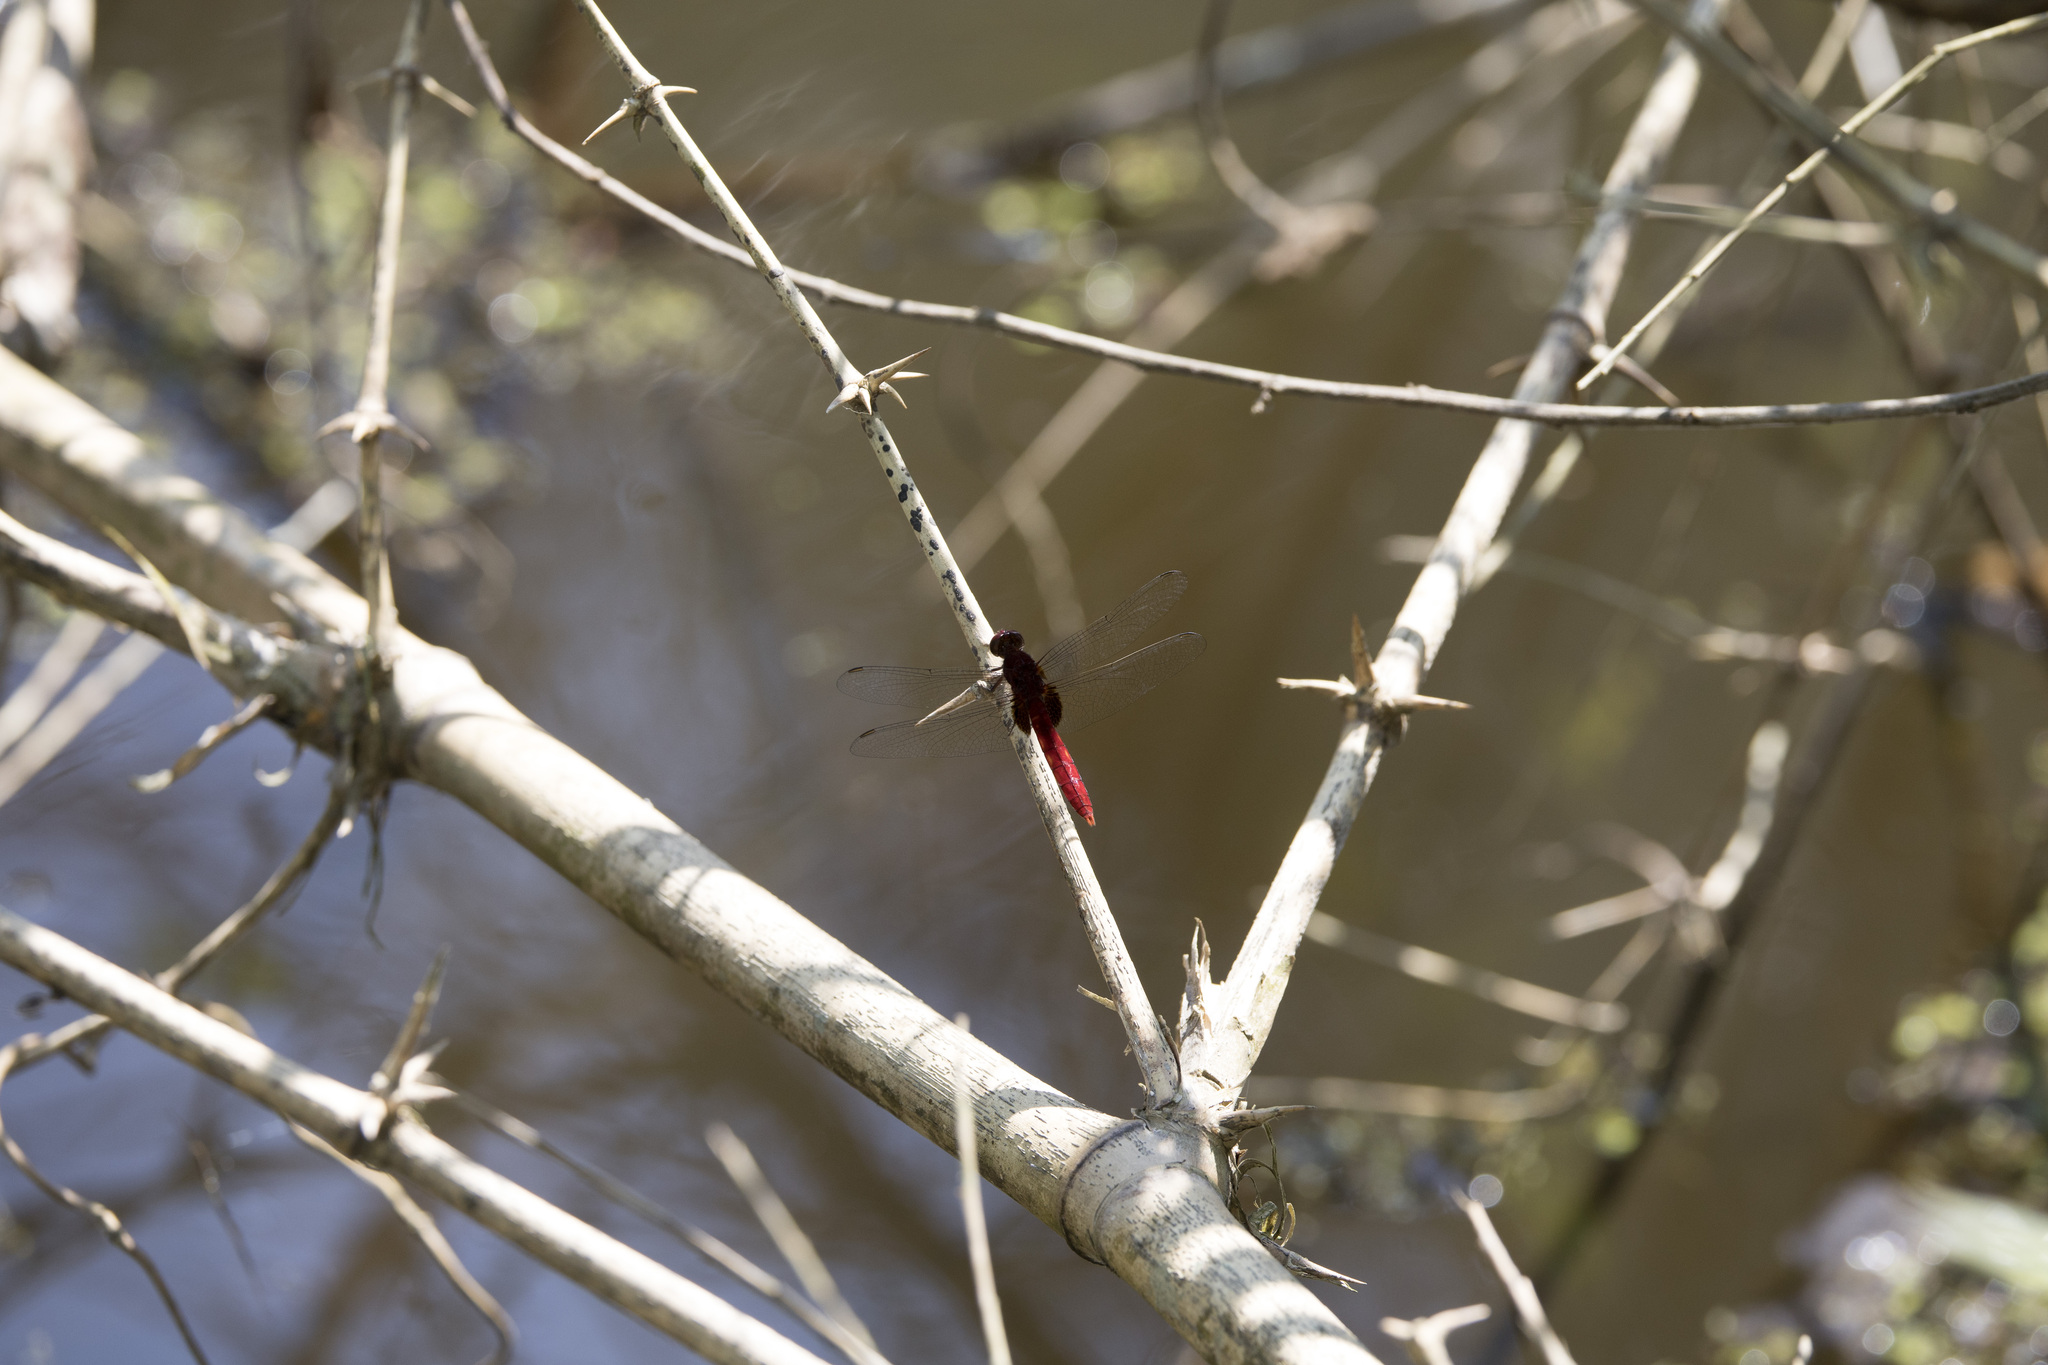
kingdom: Animalia
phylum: Arthropoda
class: Insecta
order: Odonata
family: Libellulidae
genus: Erythemis
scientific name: Erythemis mithroides
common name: Claret pondhawk
